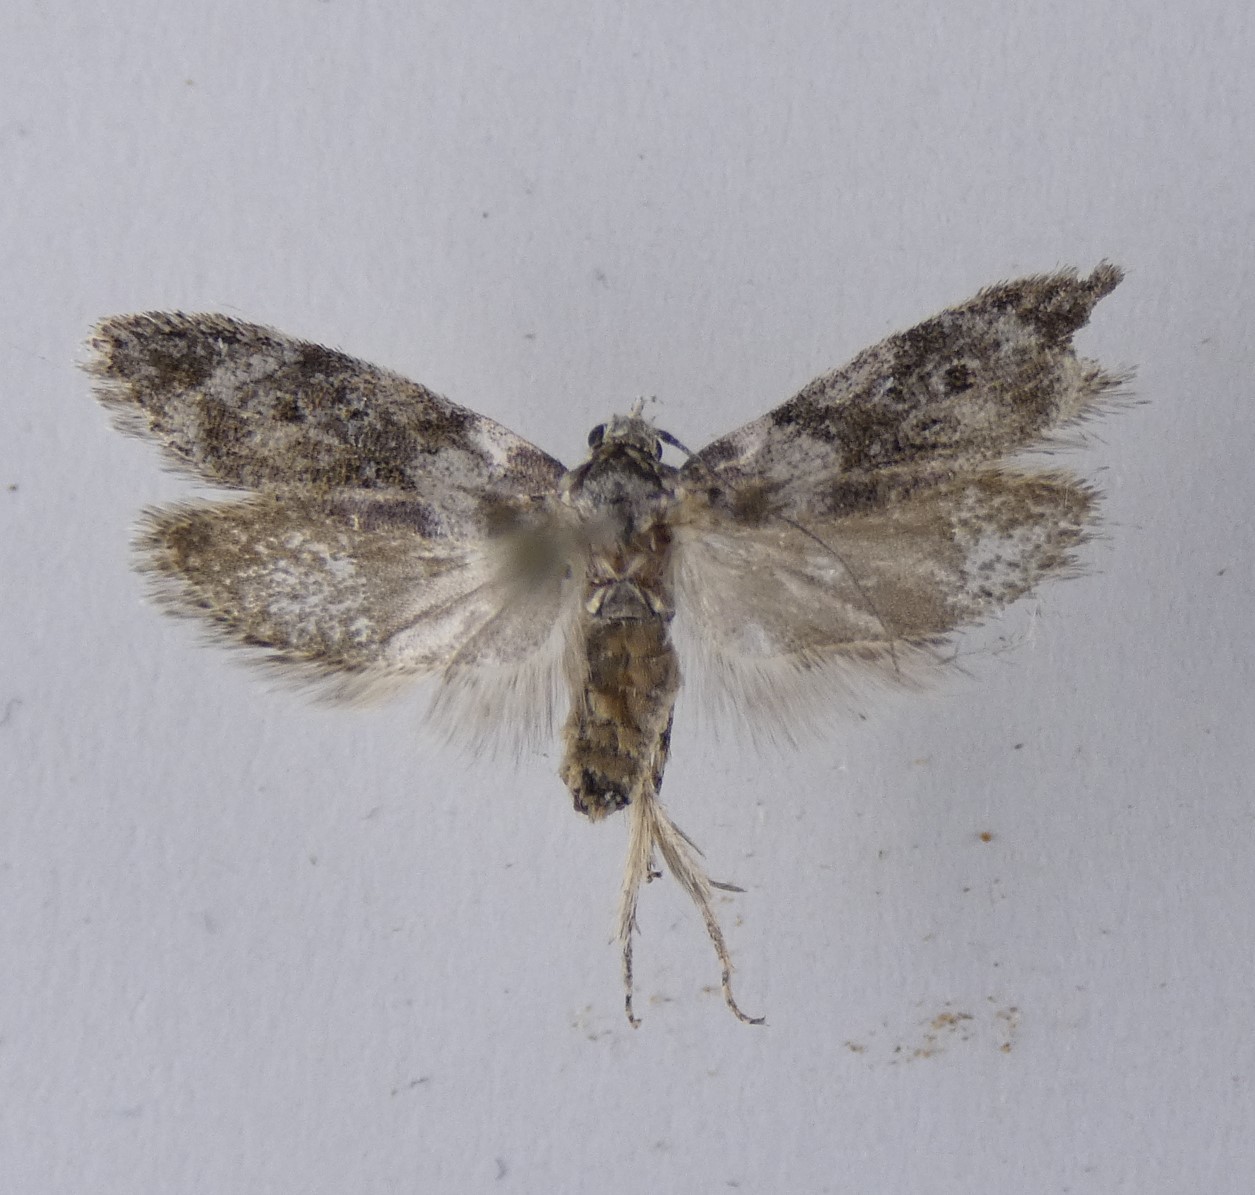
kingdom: Animalia
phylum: Arthropoda
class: Insecta
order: Lepidoptera
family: Oecophoridae
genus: Izatha
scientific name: Izatha convulsella
